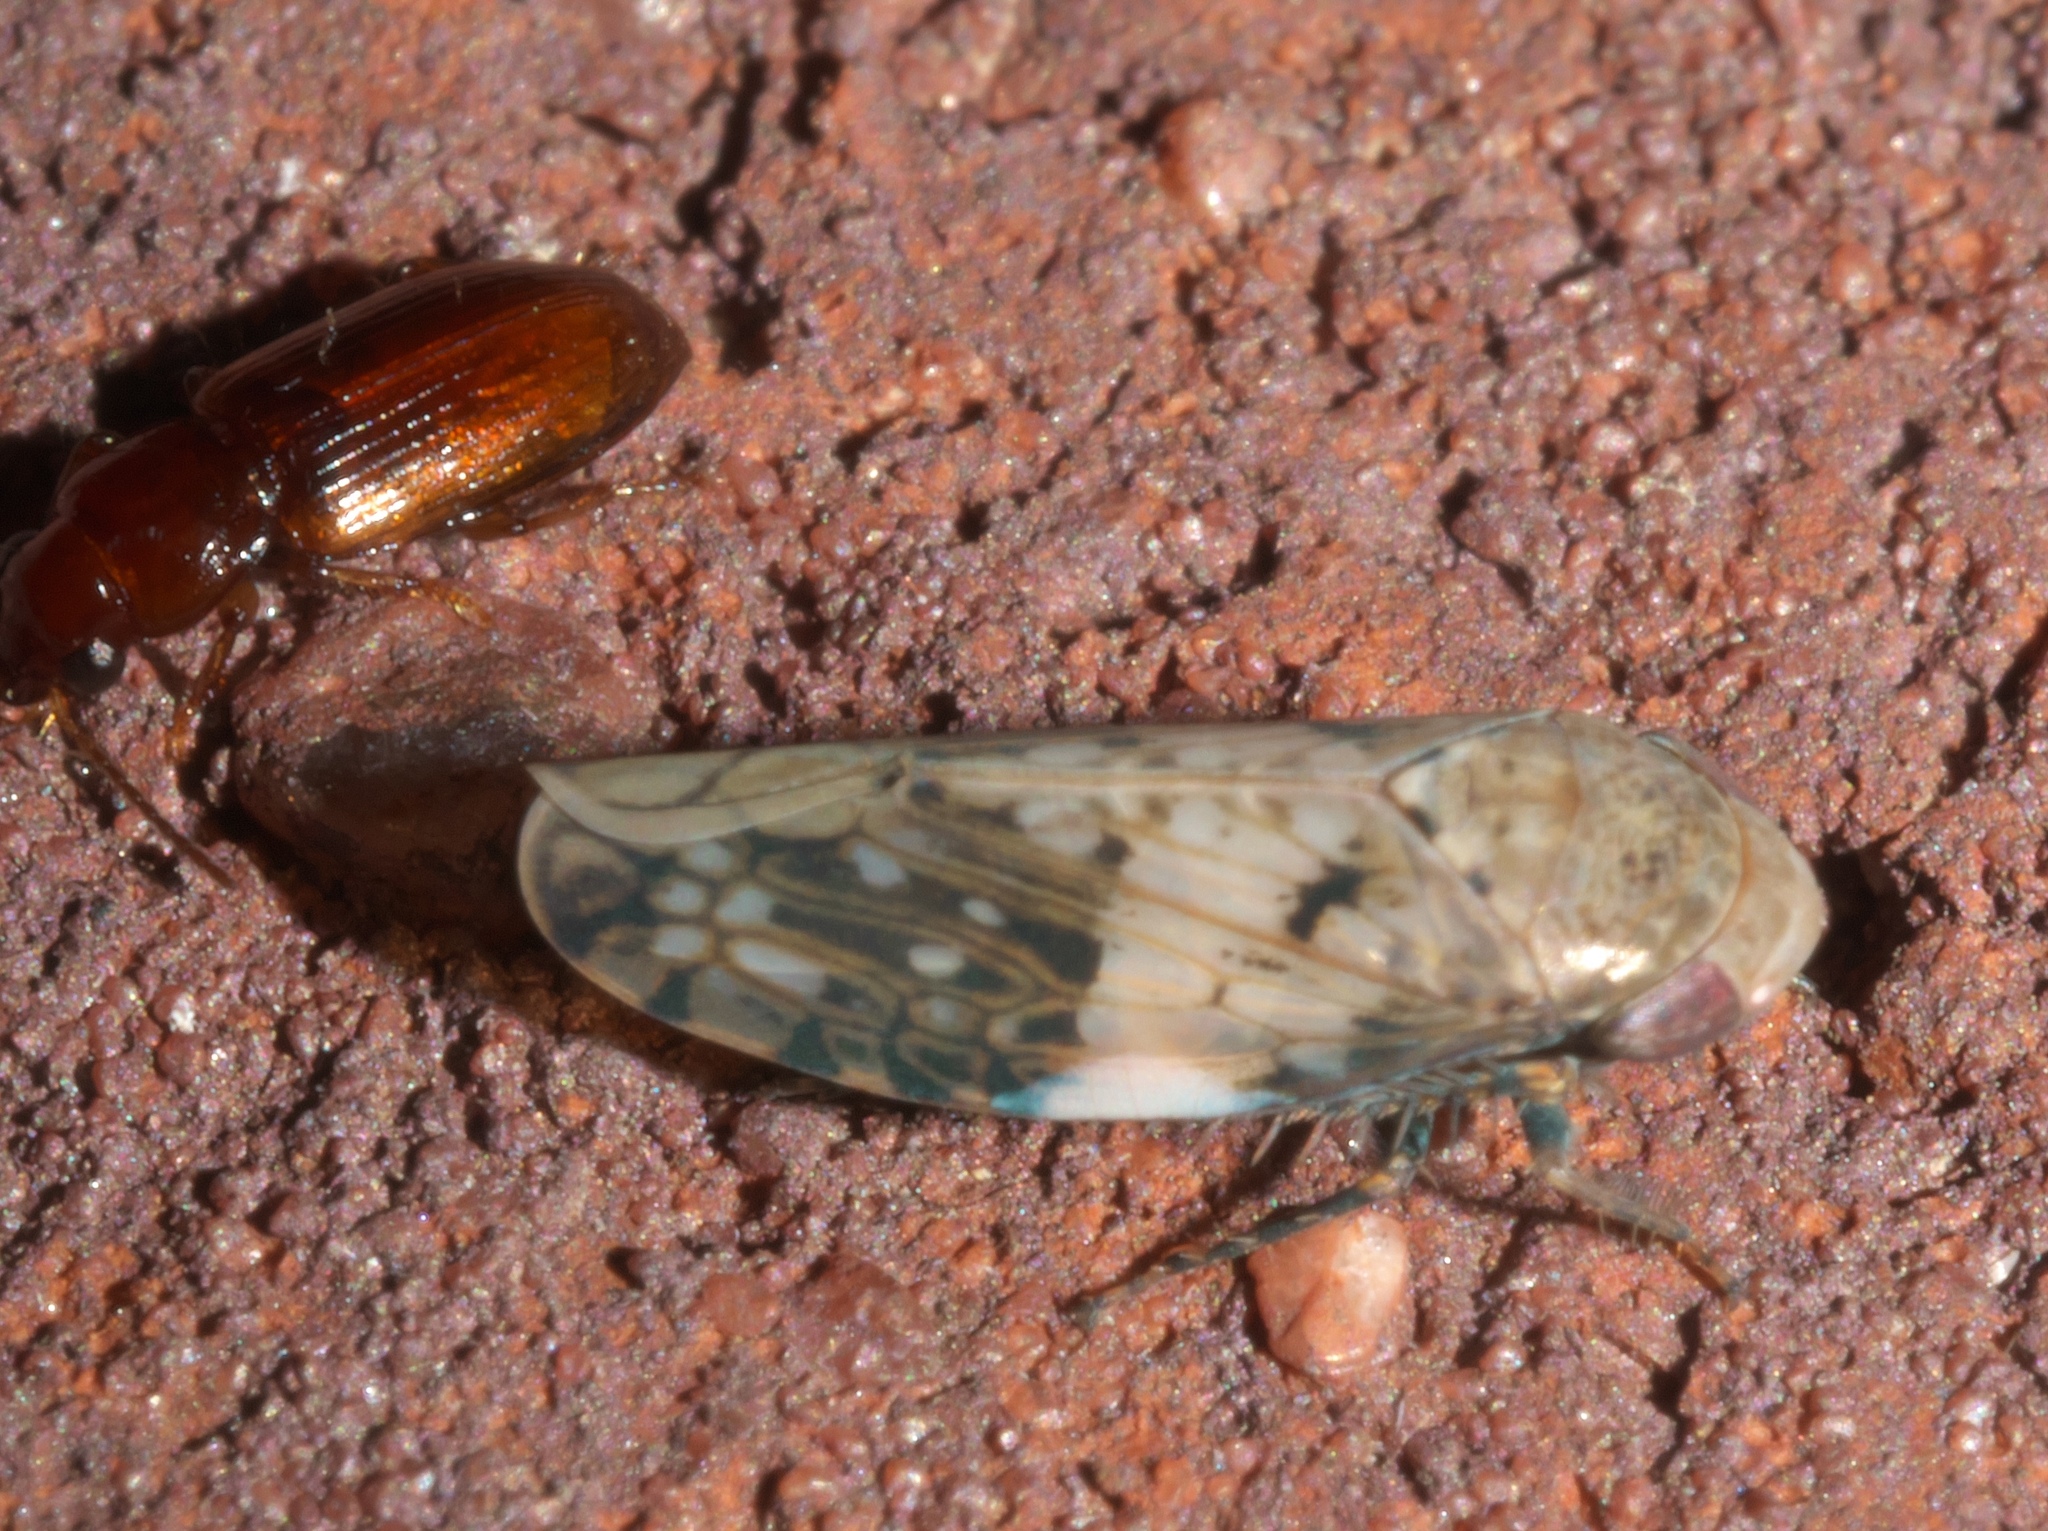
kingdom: Animalia
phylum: Arthropoda
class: Insecta
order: Hemiptera
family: Cicadellidae
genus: Menosoma
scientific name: Menosoma cinctum
